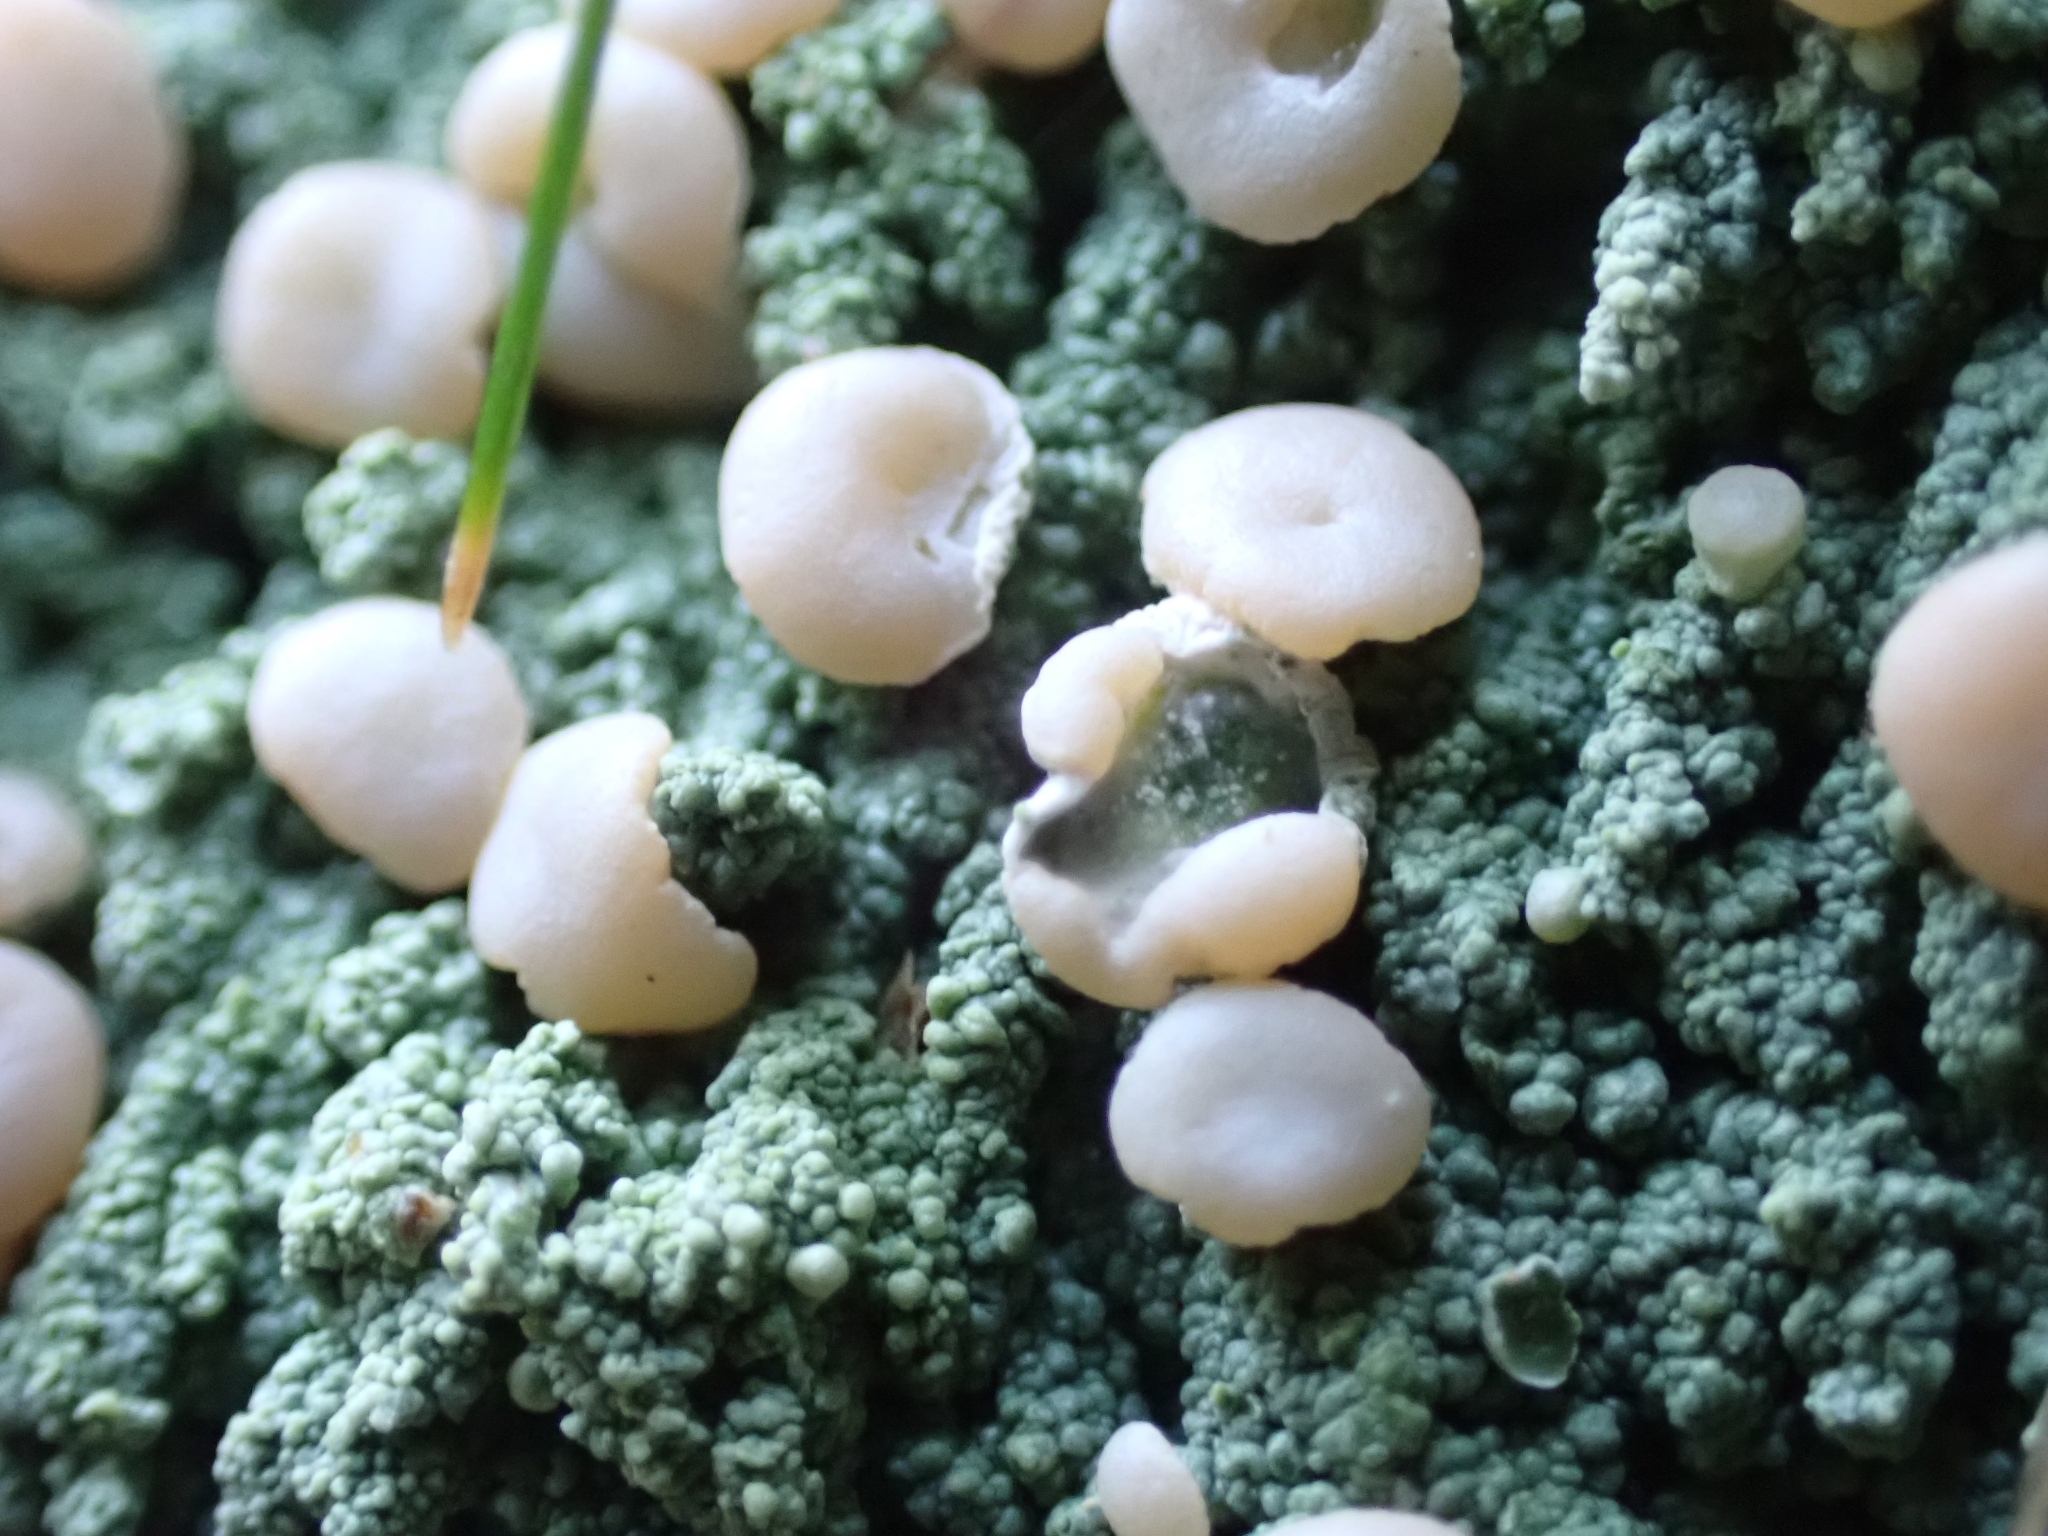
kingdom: Fungi
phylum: Ascomycota
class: Lecanoromycetes
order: Pertusariales
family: Icmadophilaceae
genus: Icmadophila
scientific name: Icmadophila ericetorum
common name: Candy lichen
